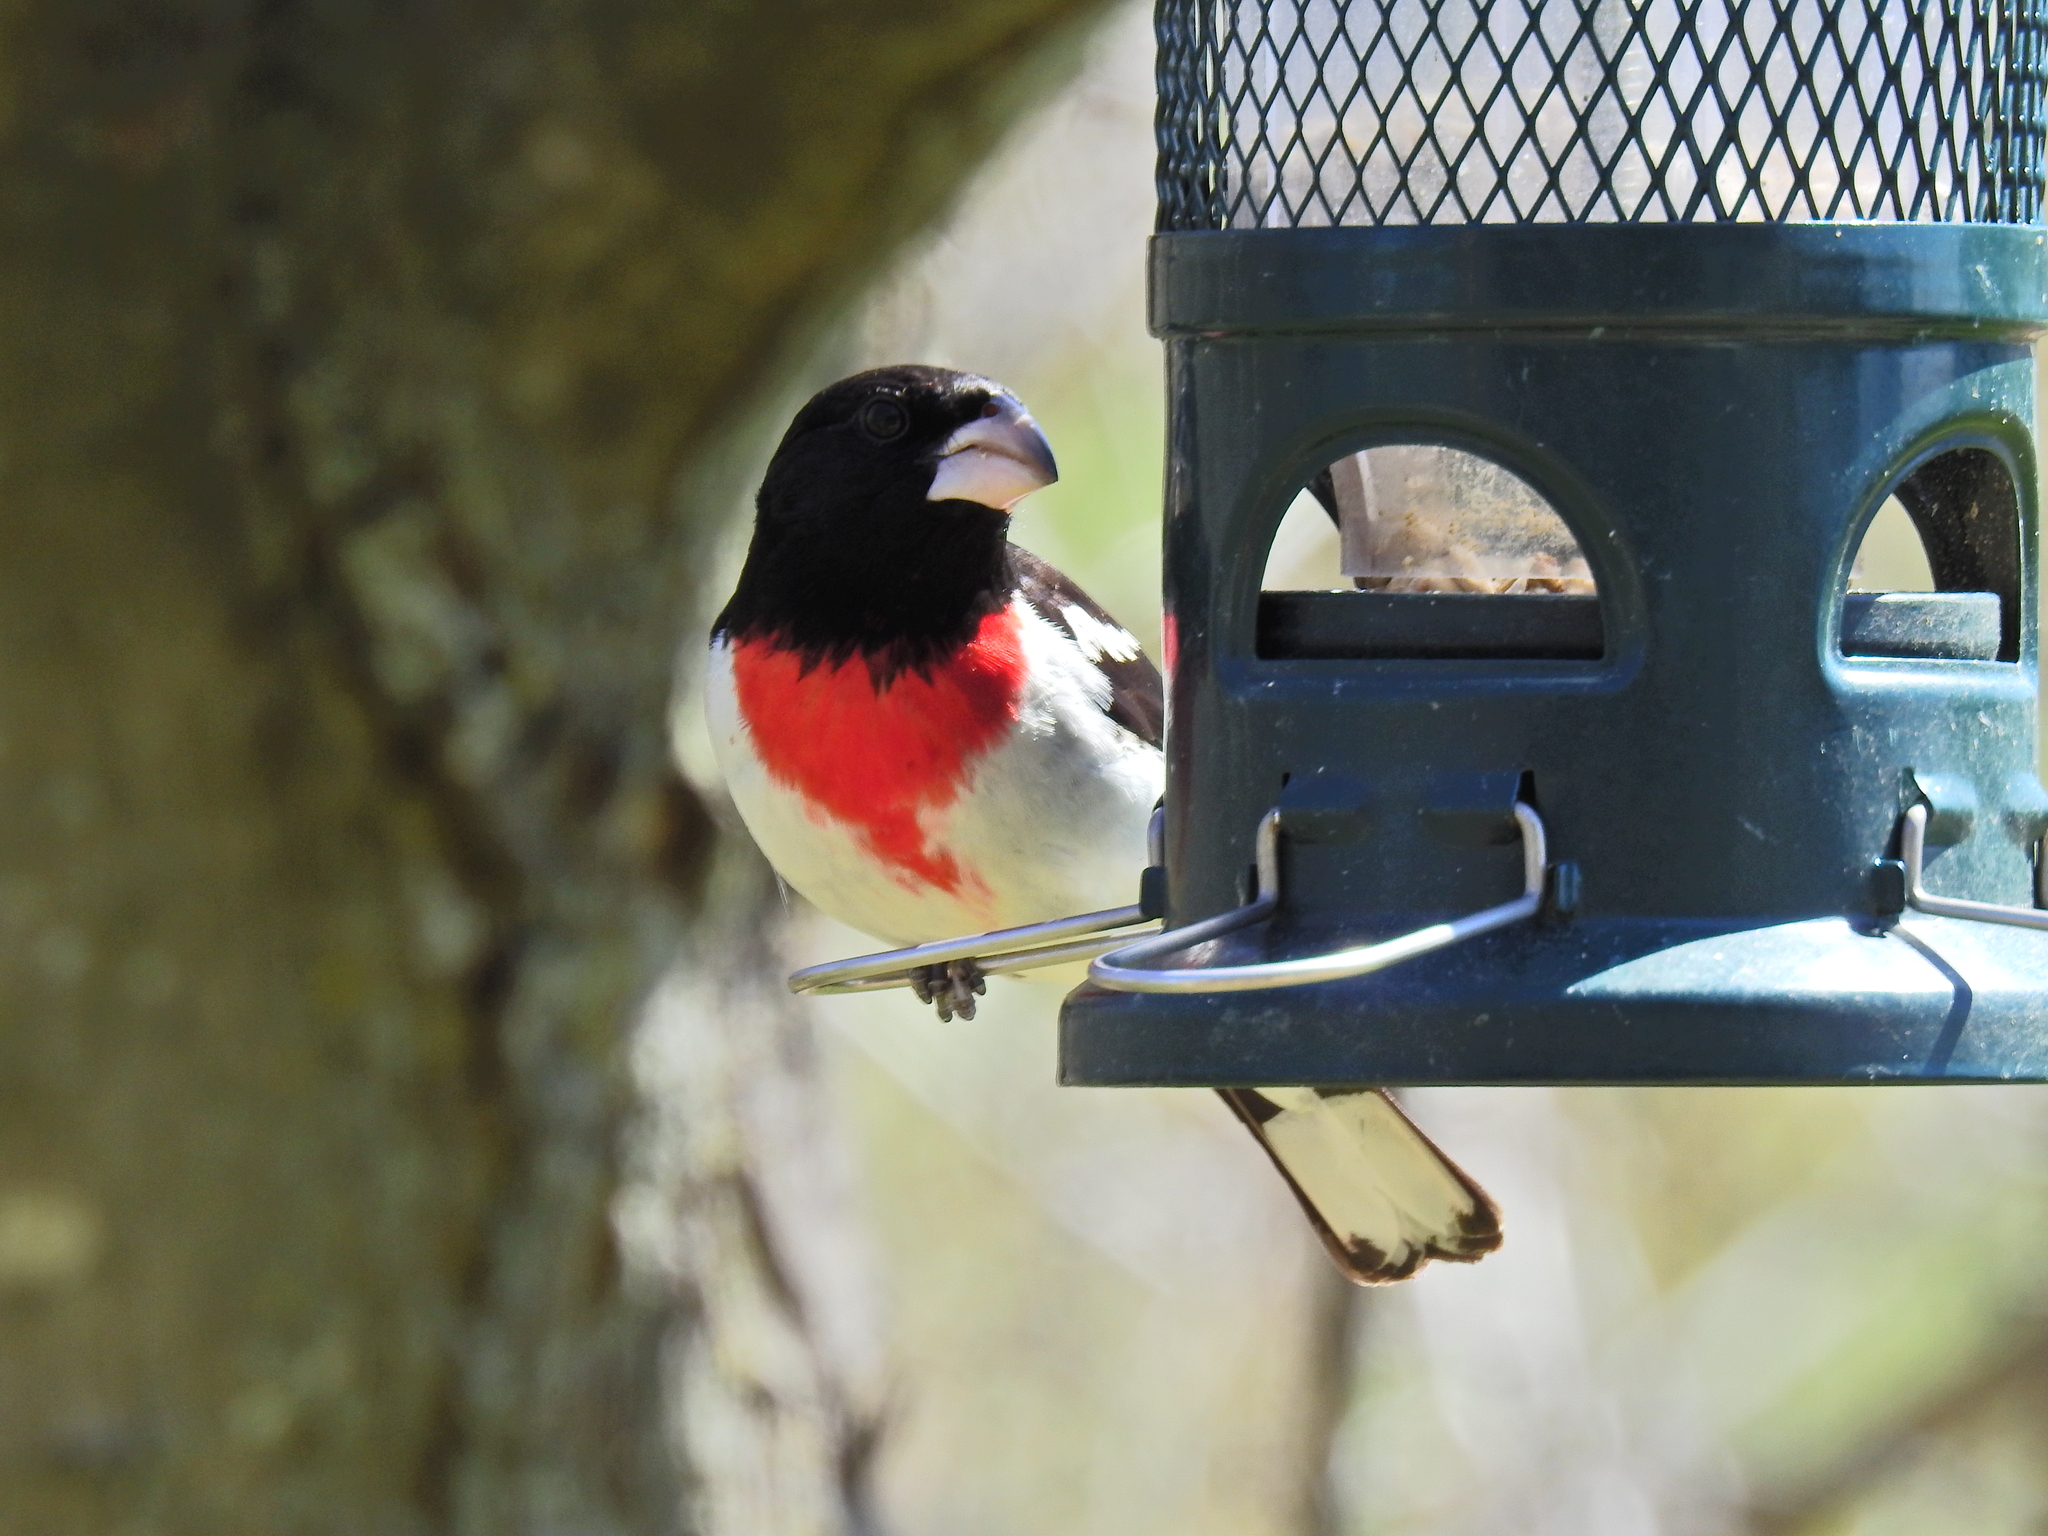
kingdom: Animalia
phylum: Chordata
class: Aves
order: Passeriformes
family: Cardinalidae
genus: Pheucticus
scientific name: Pheucticus ludovicianus
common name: Rose-breasted grosbeak
